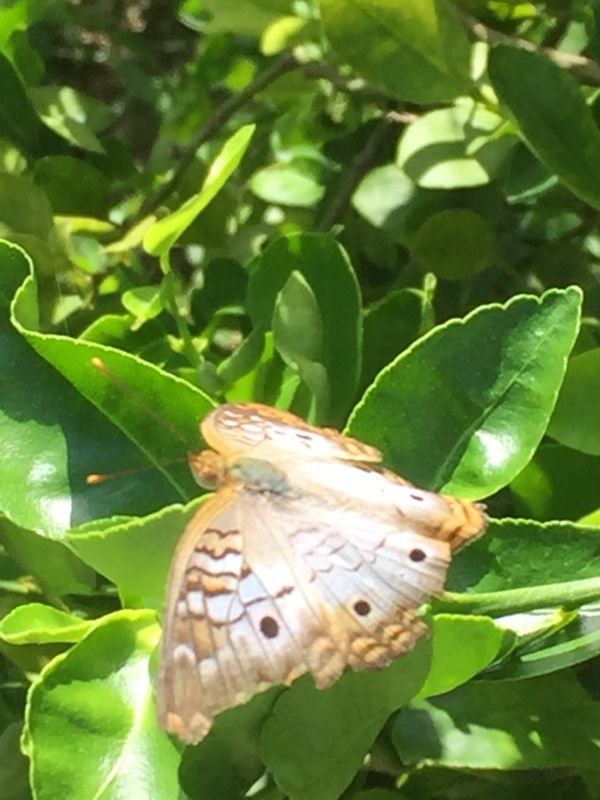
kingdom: Animalia
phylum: Arthropoda
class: Insecta
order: Lepidoptera
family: Nymphalidae
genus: Anartia
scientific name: Anartia jatrophae
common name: White peacock
